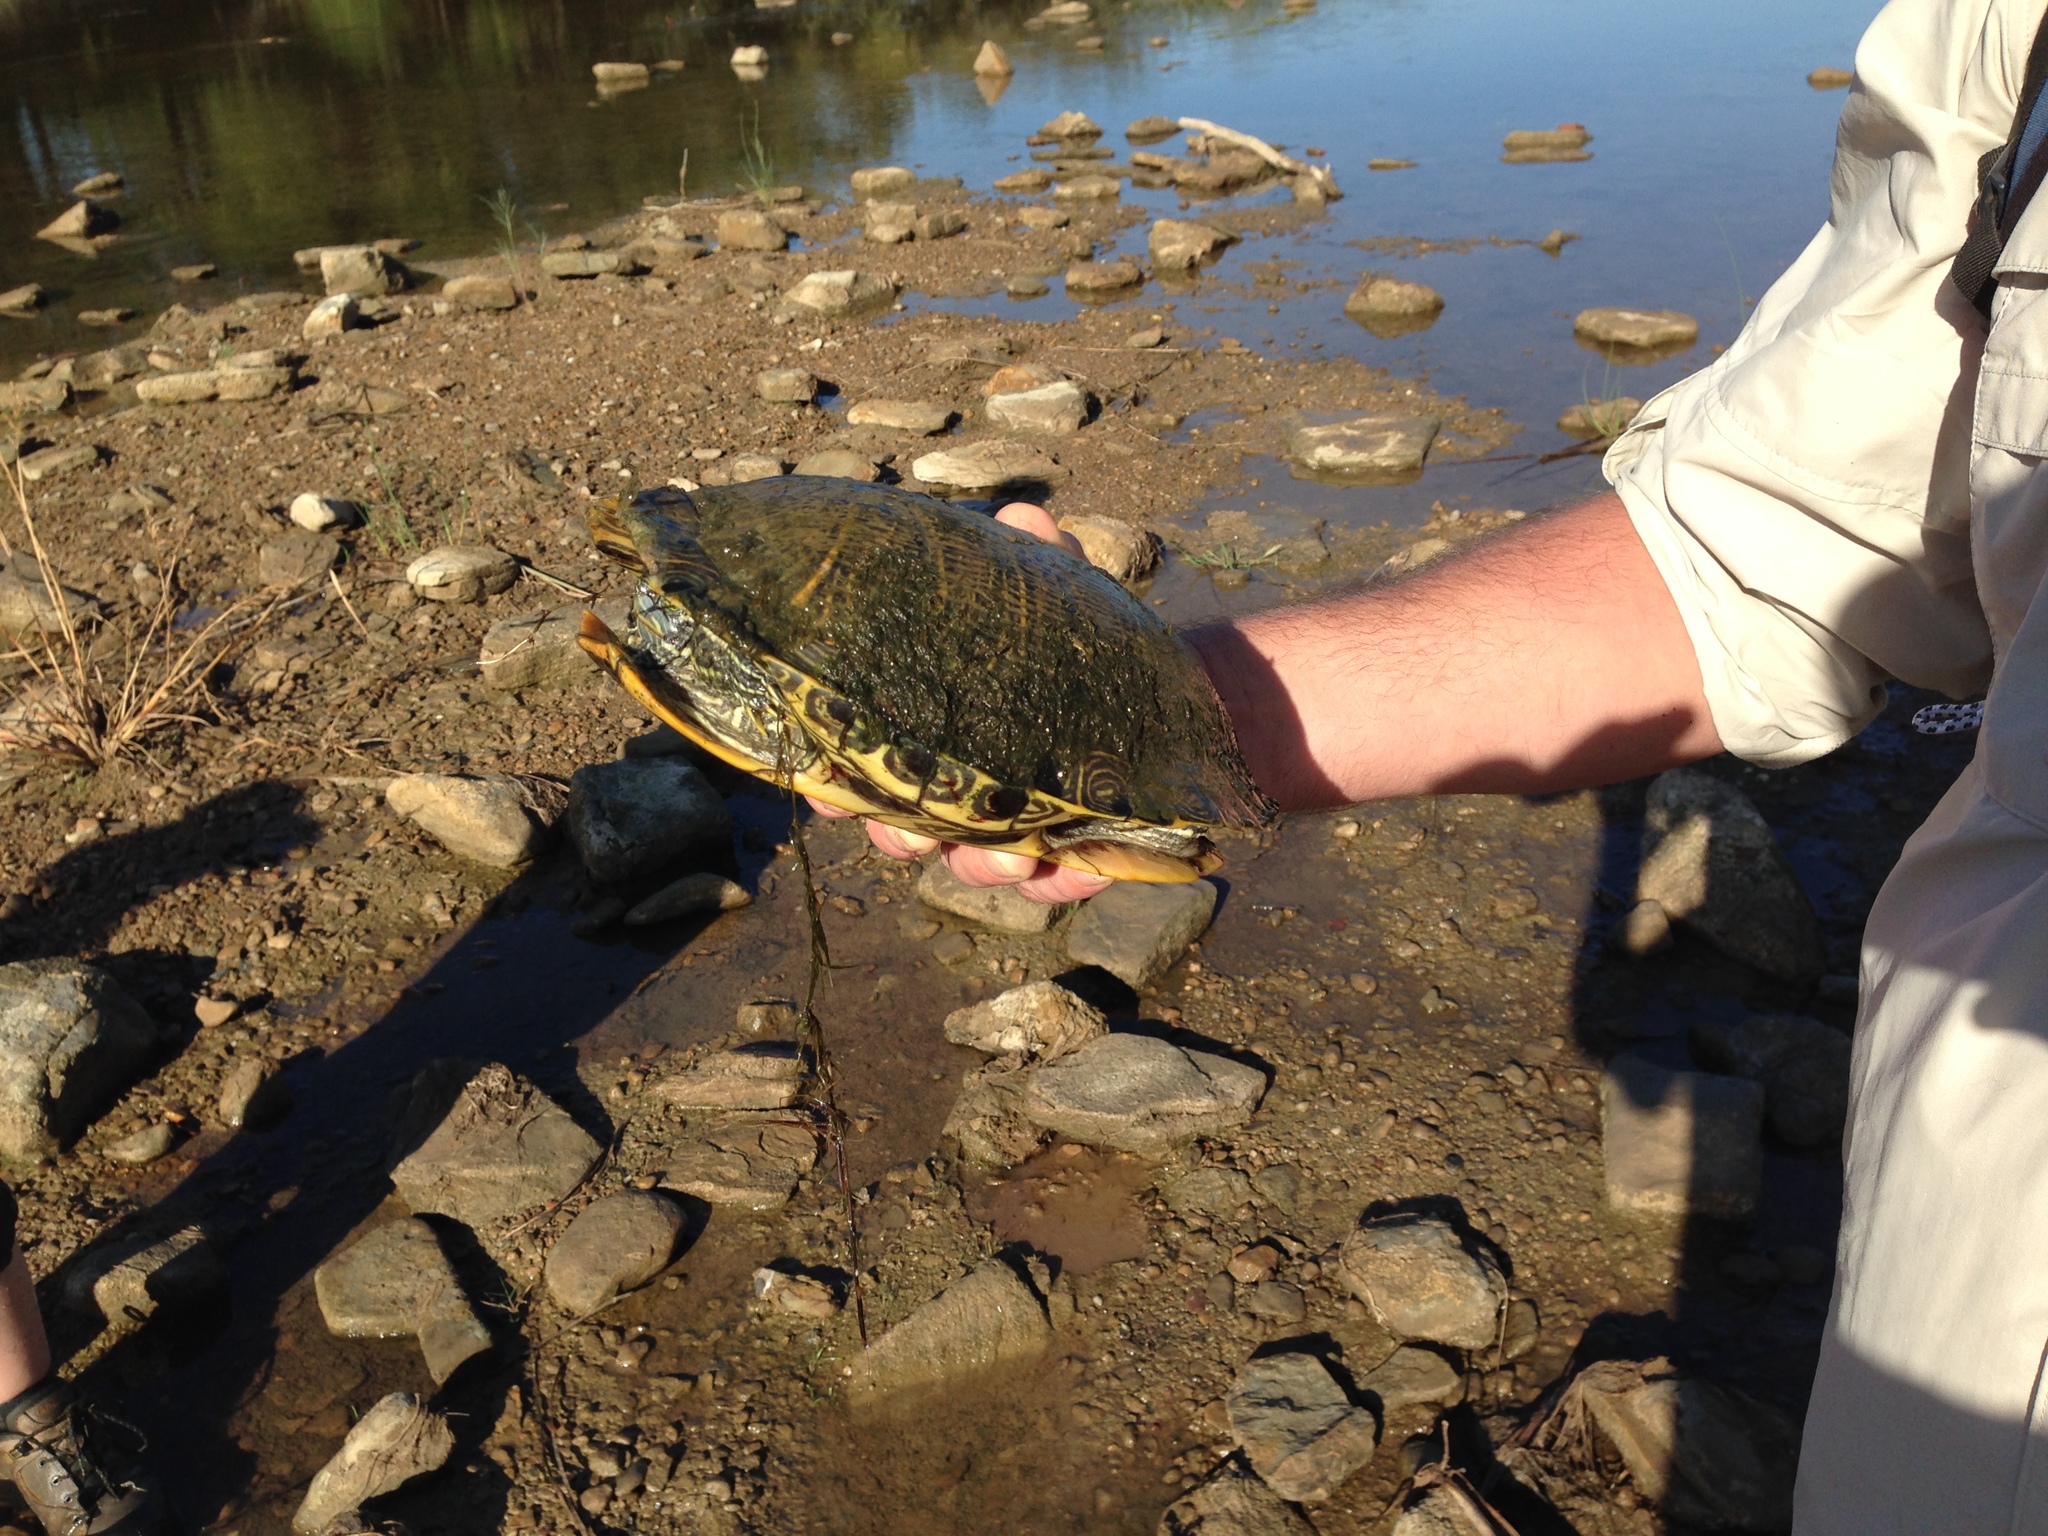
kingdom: Animalia
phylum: Chordata
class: Testudines
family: Emydidae
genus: Trachemys
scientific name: Trachemys scripta
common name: Slider
